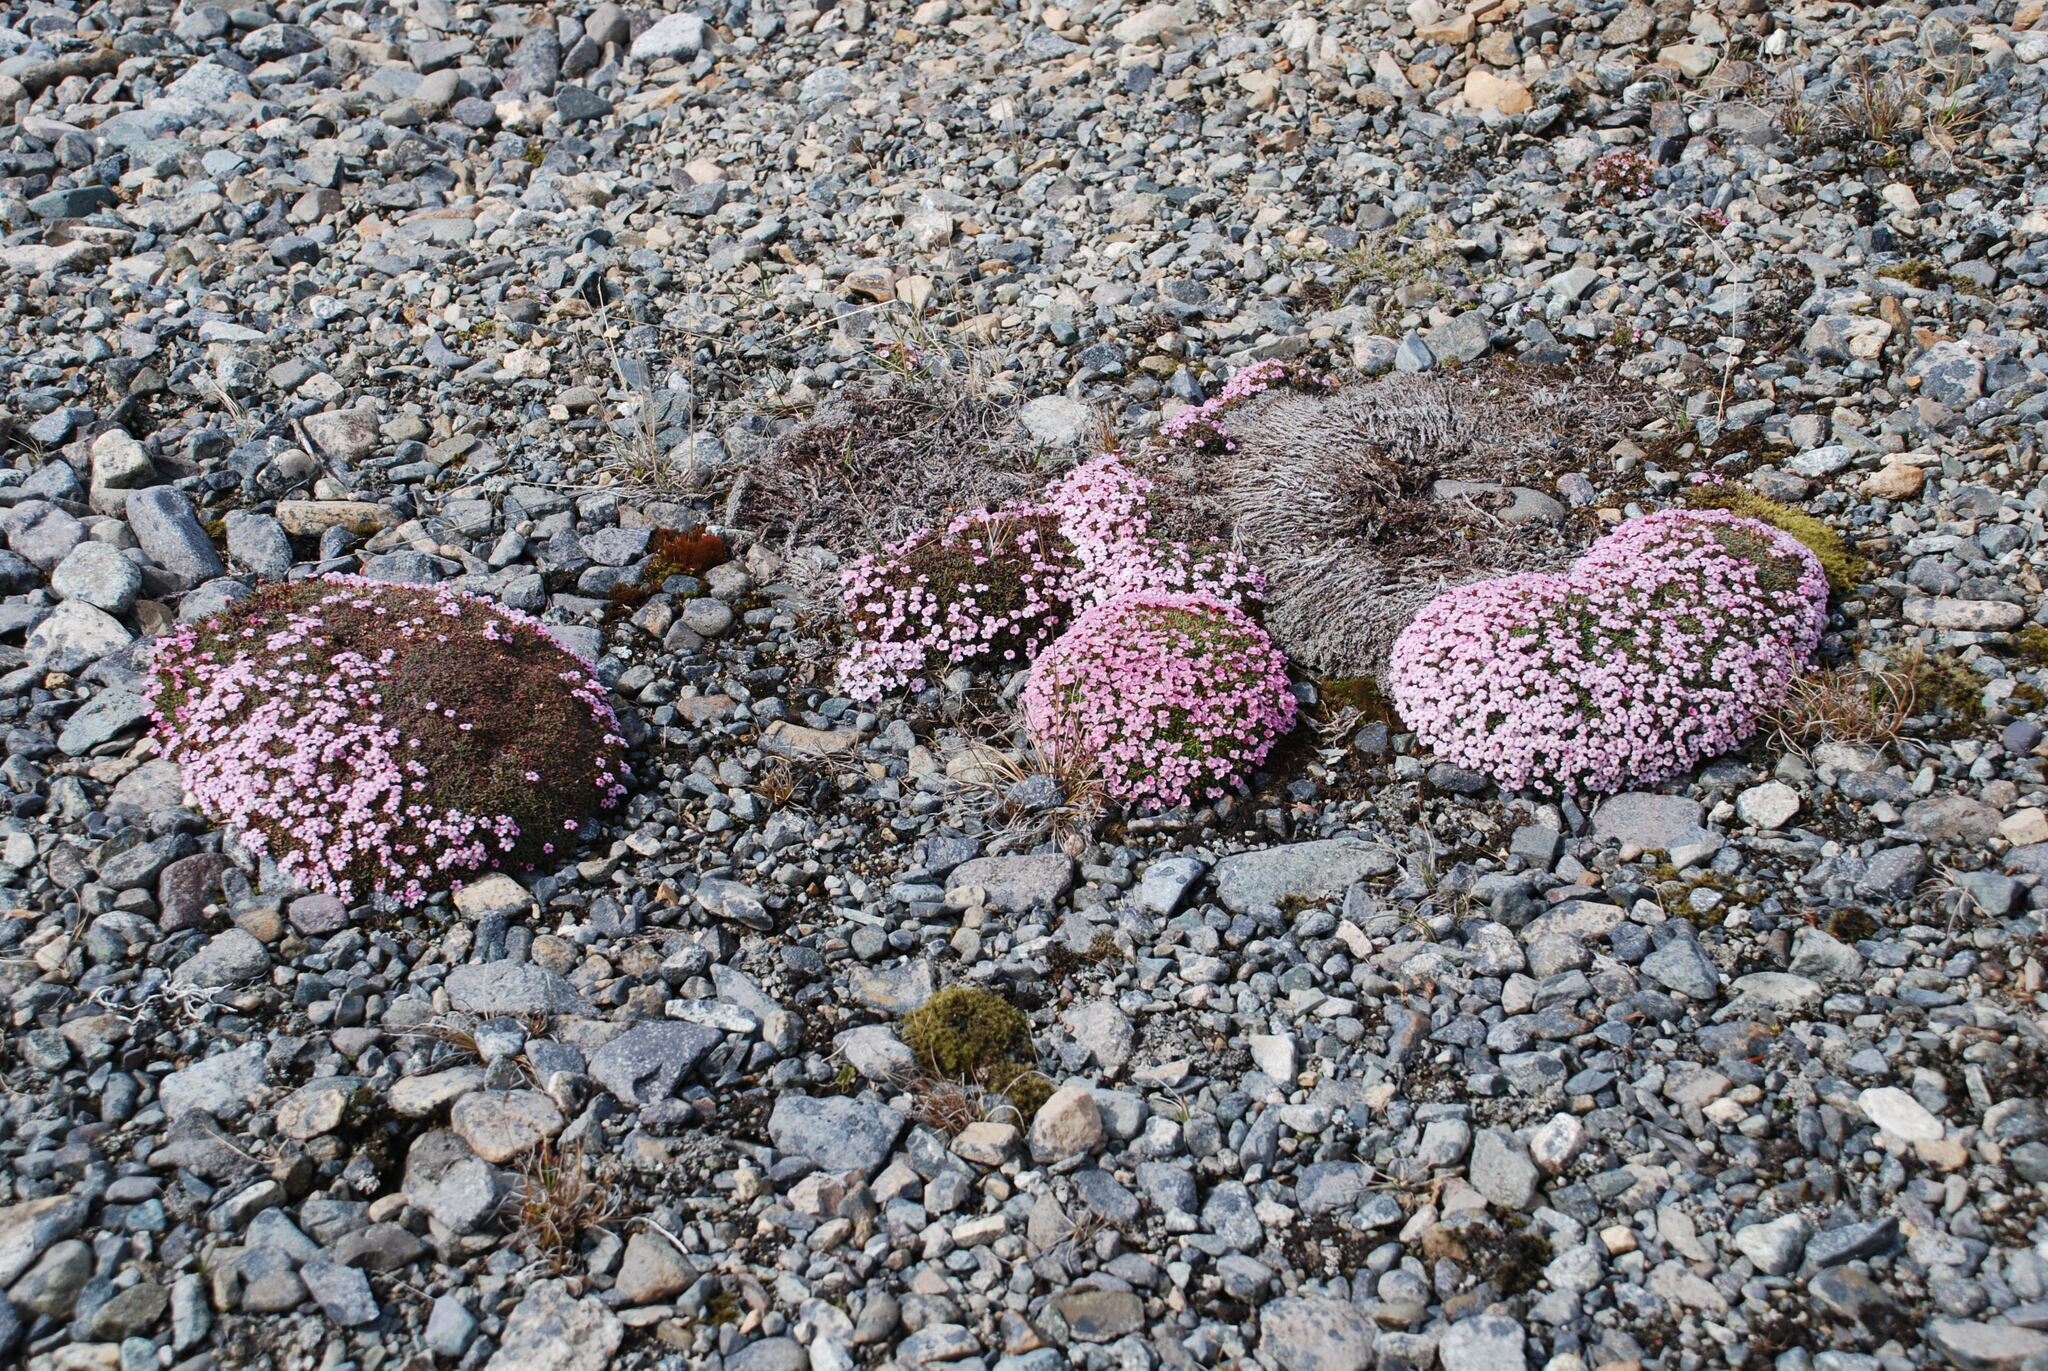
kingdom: Plantae
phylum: Tracheophyta
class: Magnoliopsida
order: Ericales
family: Primulaceae
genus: Androsace
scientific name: Androsace ochotensis
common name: Alaska dwarf-primrose
